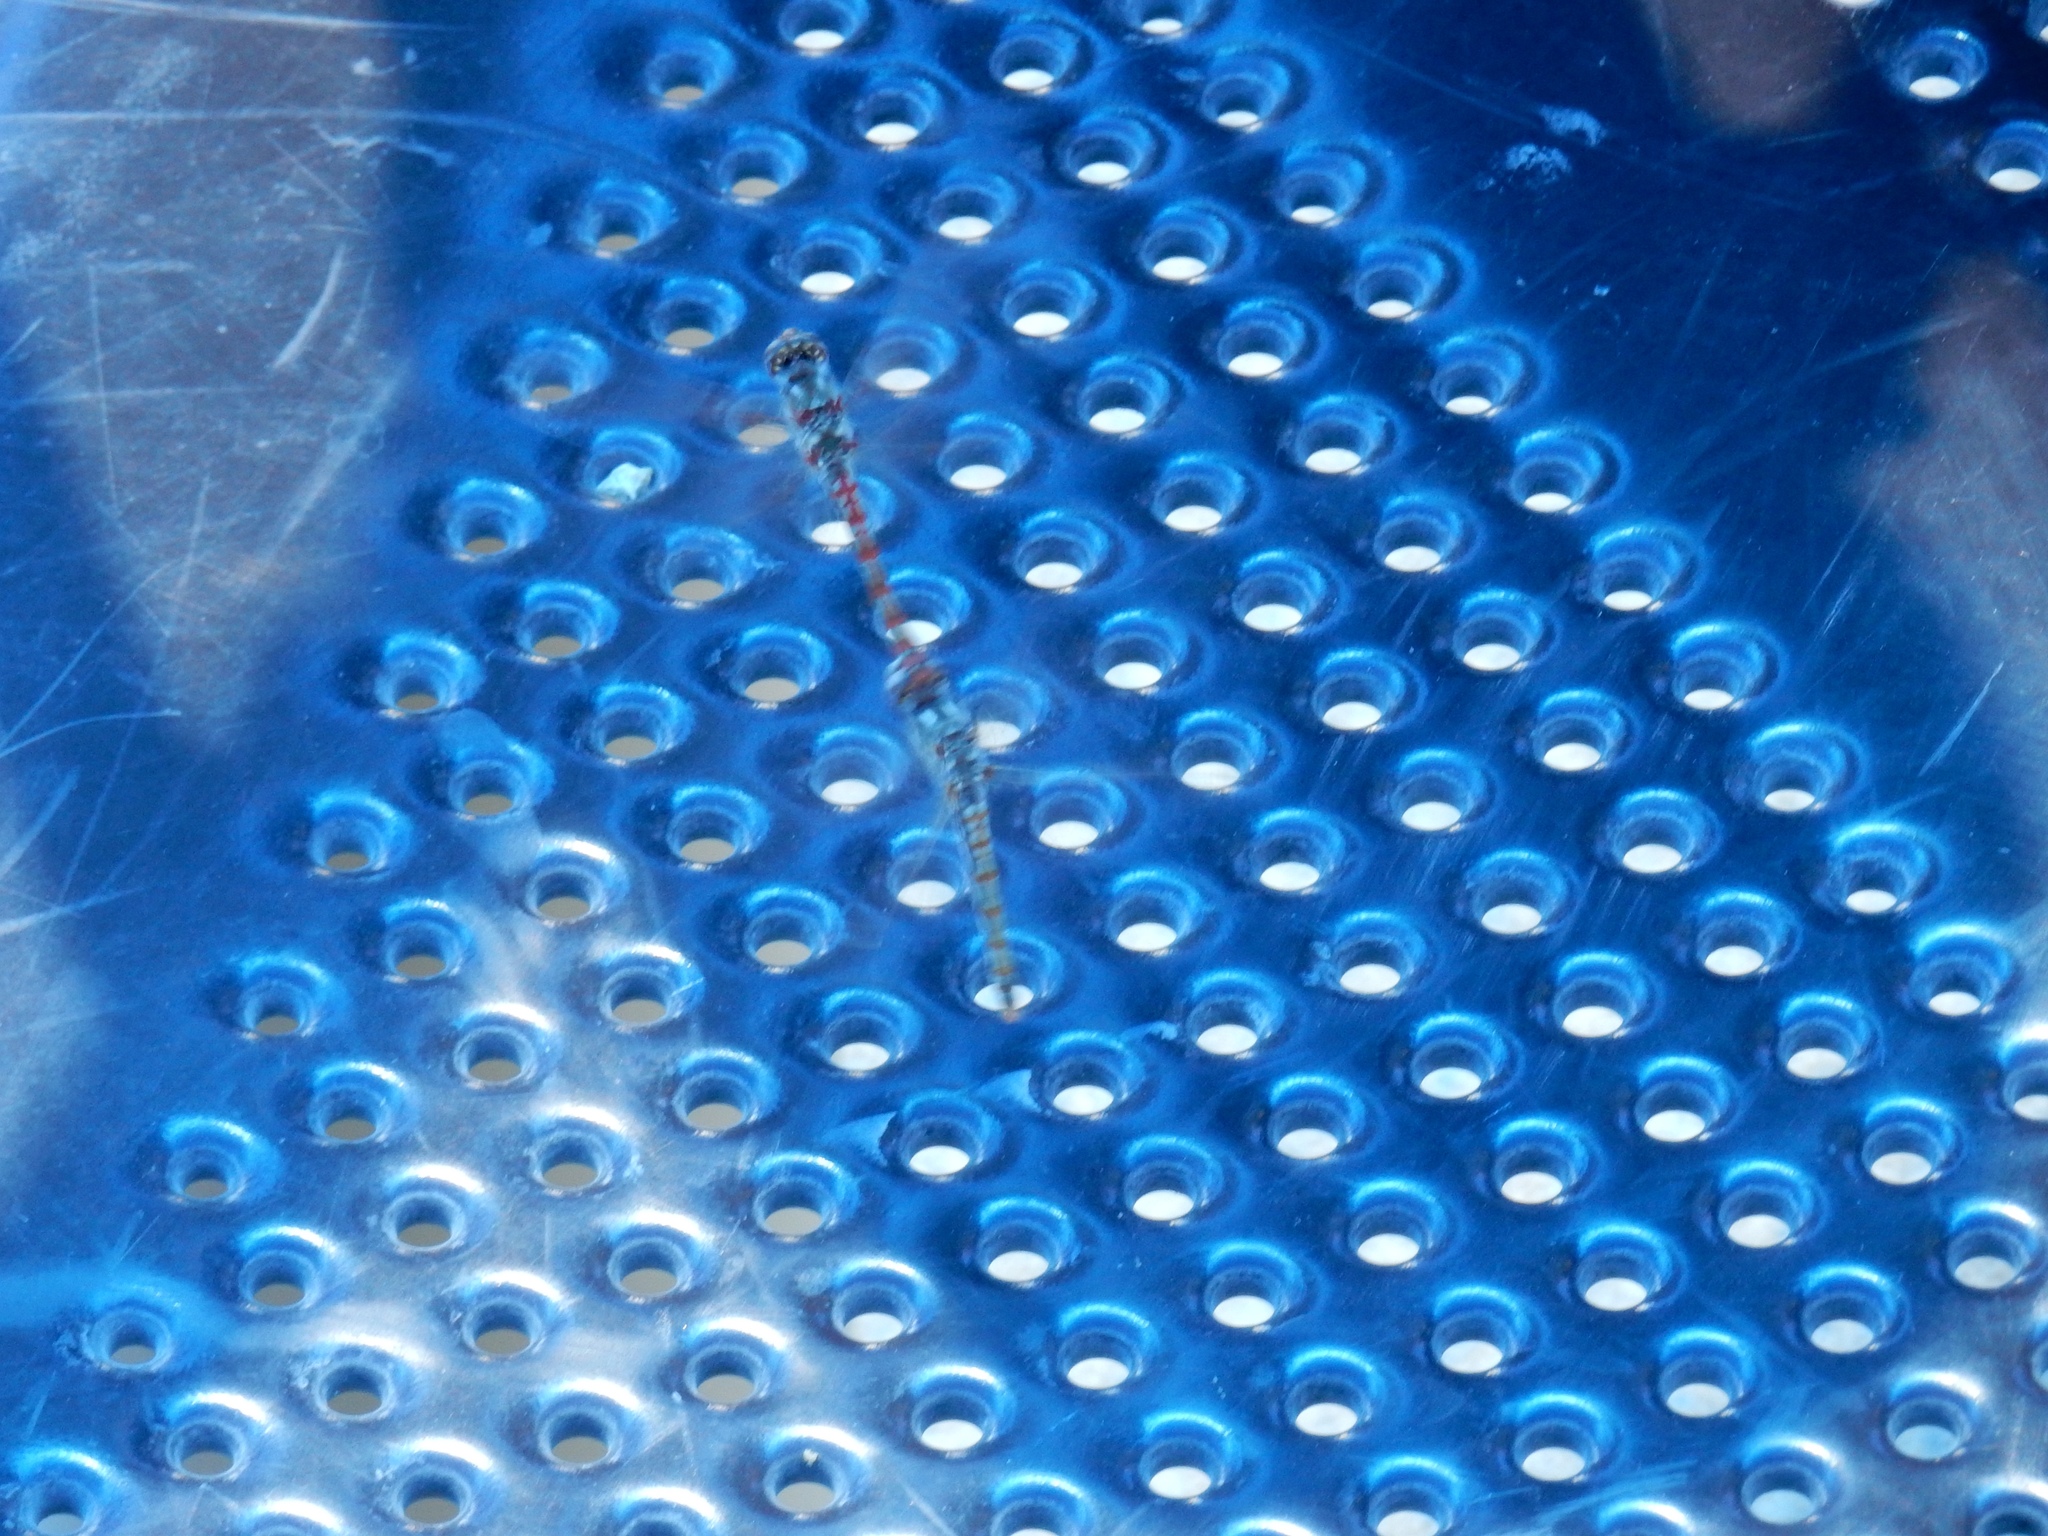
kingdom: Animalia
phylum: Arthropoda
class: Insecta
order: Odonata
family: Libellulidae
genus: Sympetrum
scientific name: Sympetrum corruptum
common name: Variegated meadowhawk
